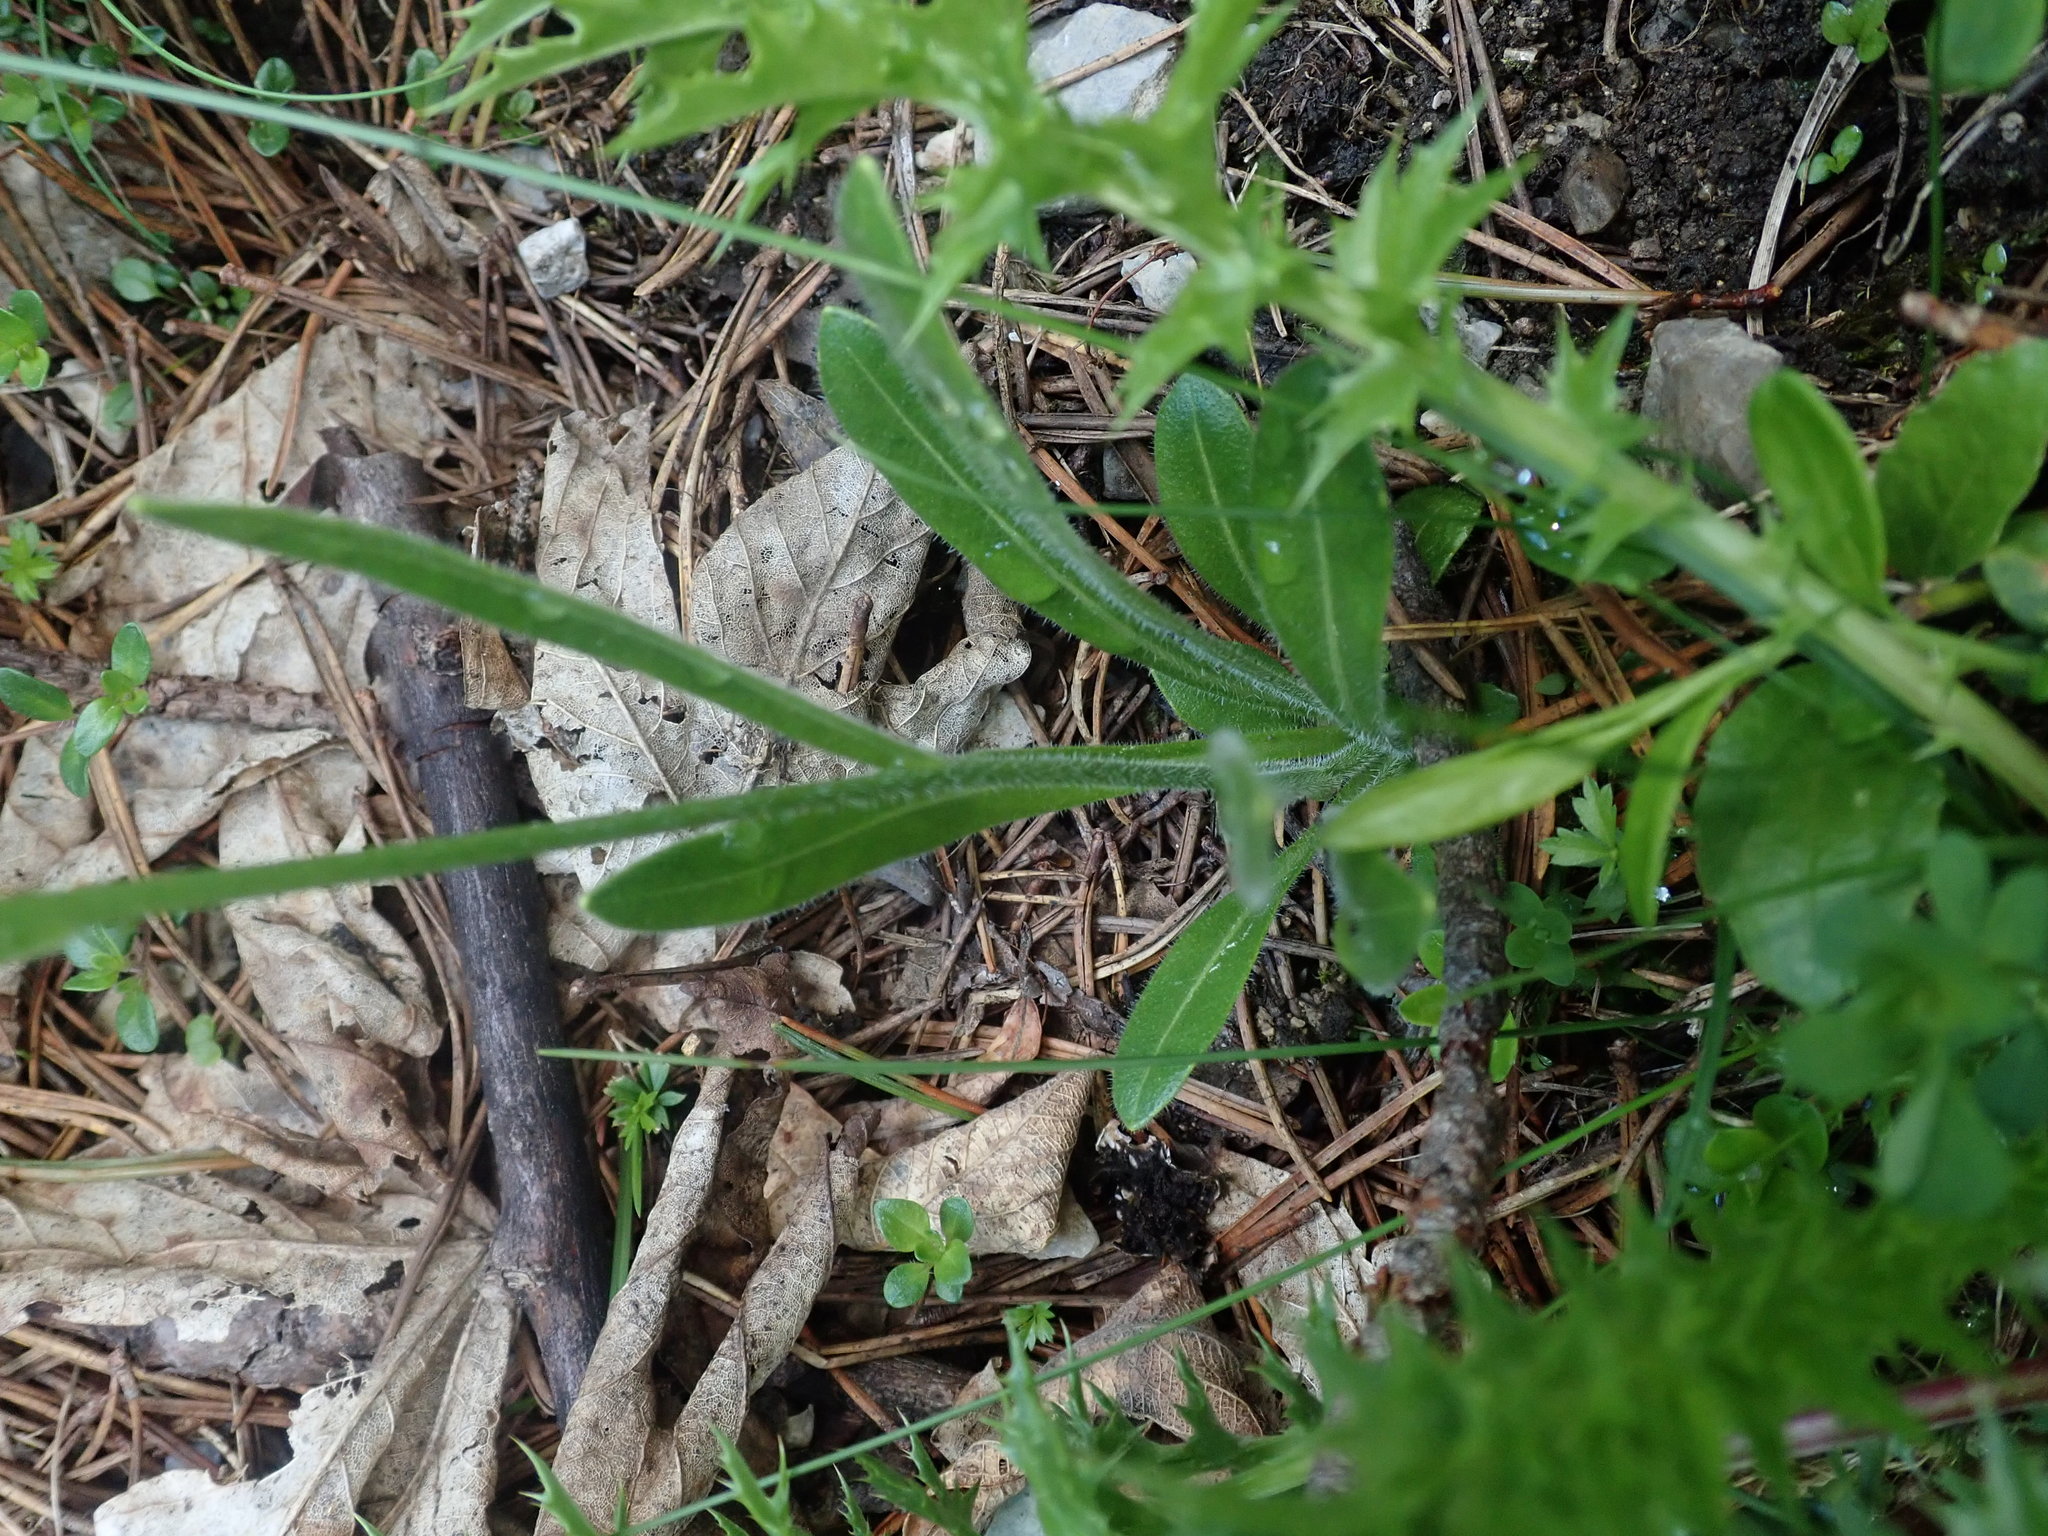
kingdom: Plantae
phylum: Tracheophyta
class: Magnoliopsida
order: Brassicales
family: Brassicaceae
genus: Biscutella
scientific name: Biscutella laevigata
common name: Buckler mustard
